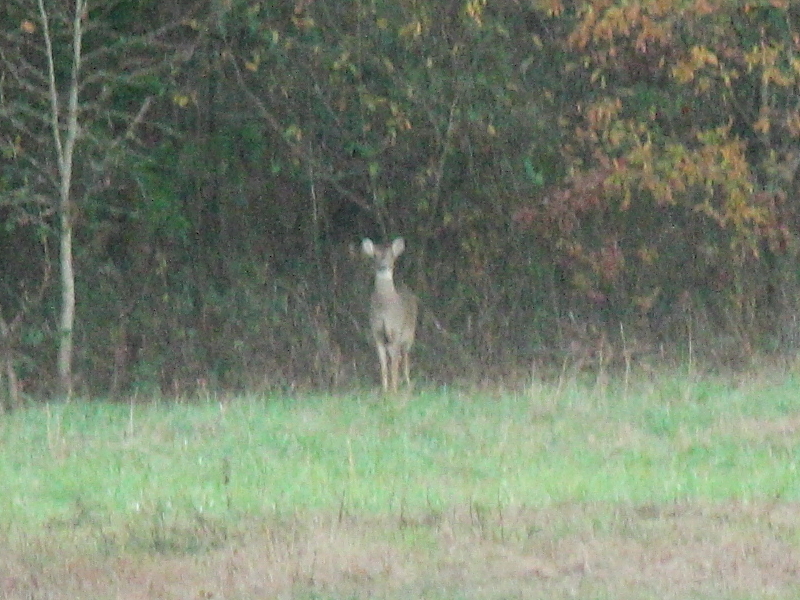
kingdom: Animalia
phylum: Chordata
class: Mammalia
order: Artiodactyla
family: Cervidae
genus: Odocoileus
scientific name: Odocoileus virginianus
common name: White-tailed deer
